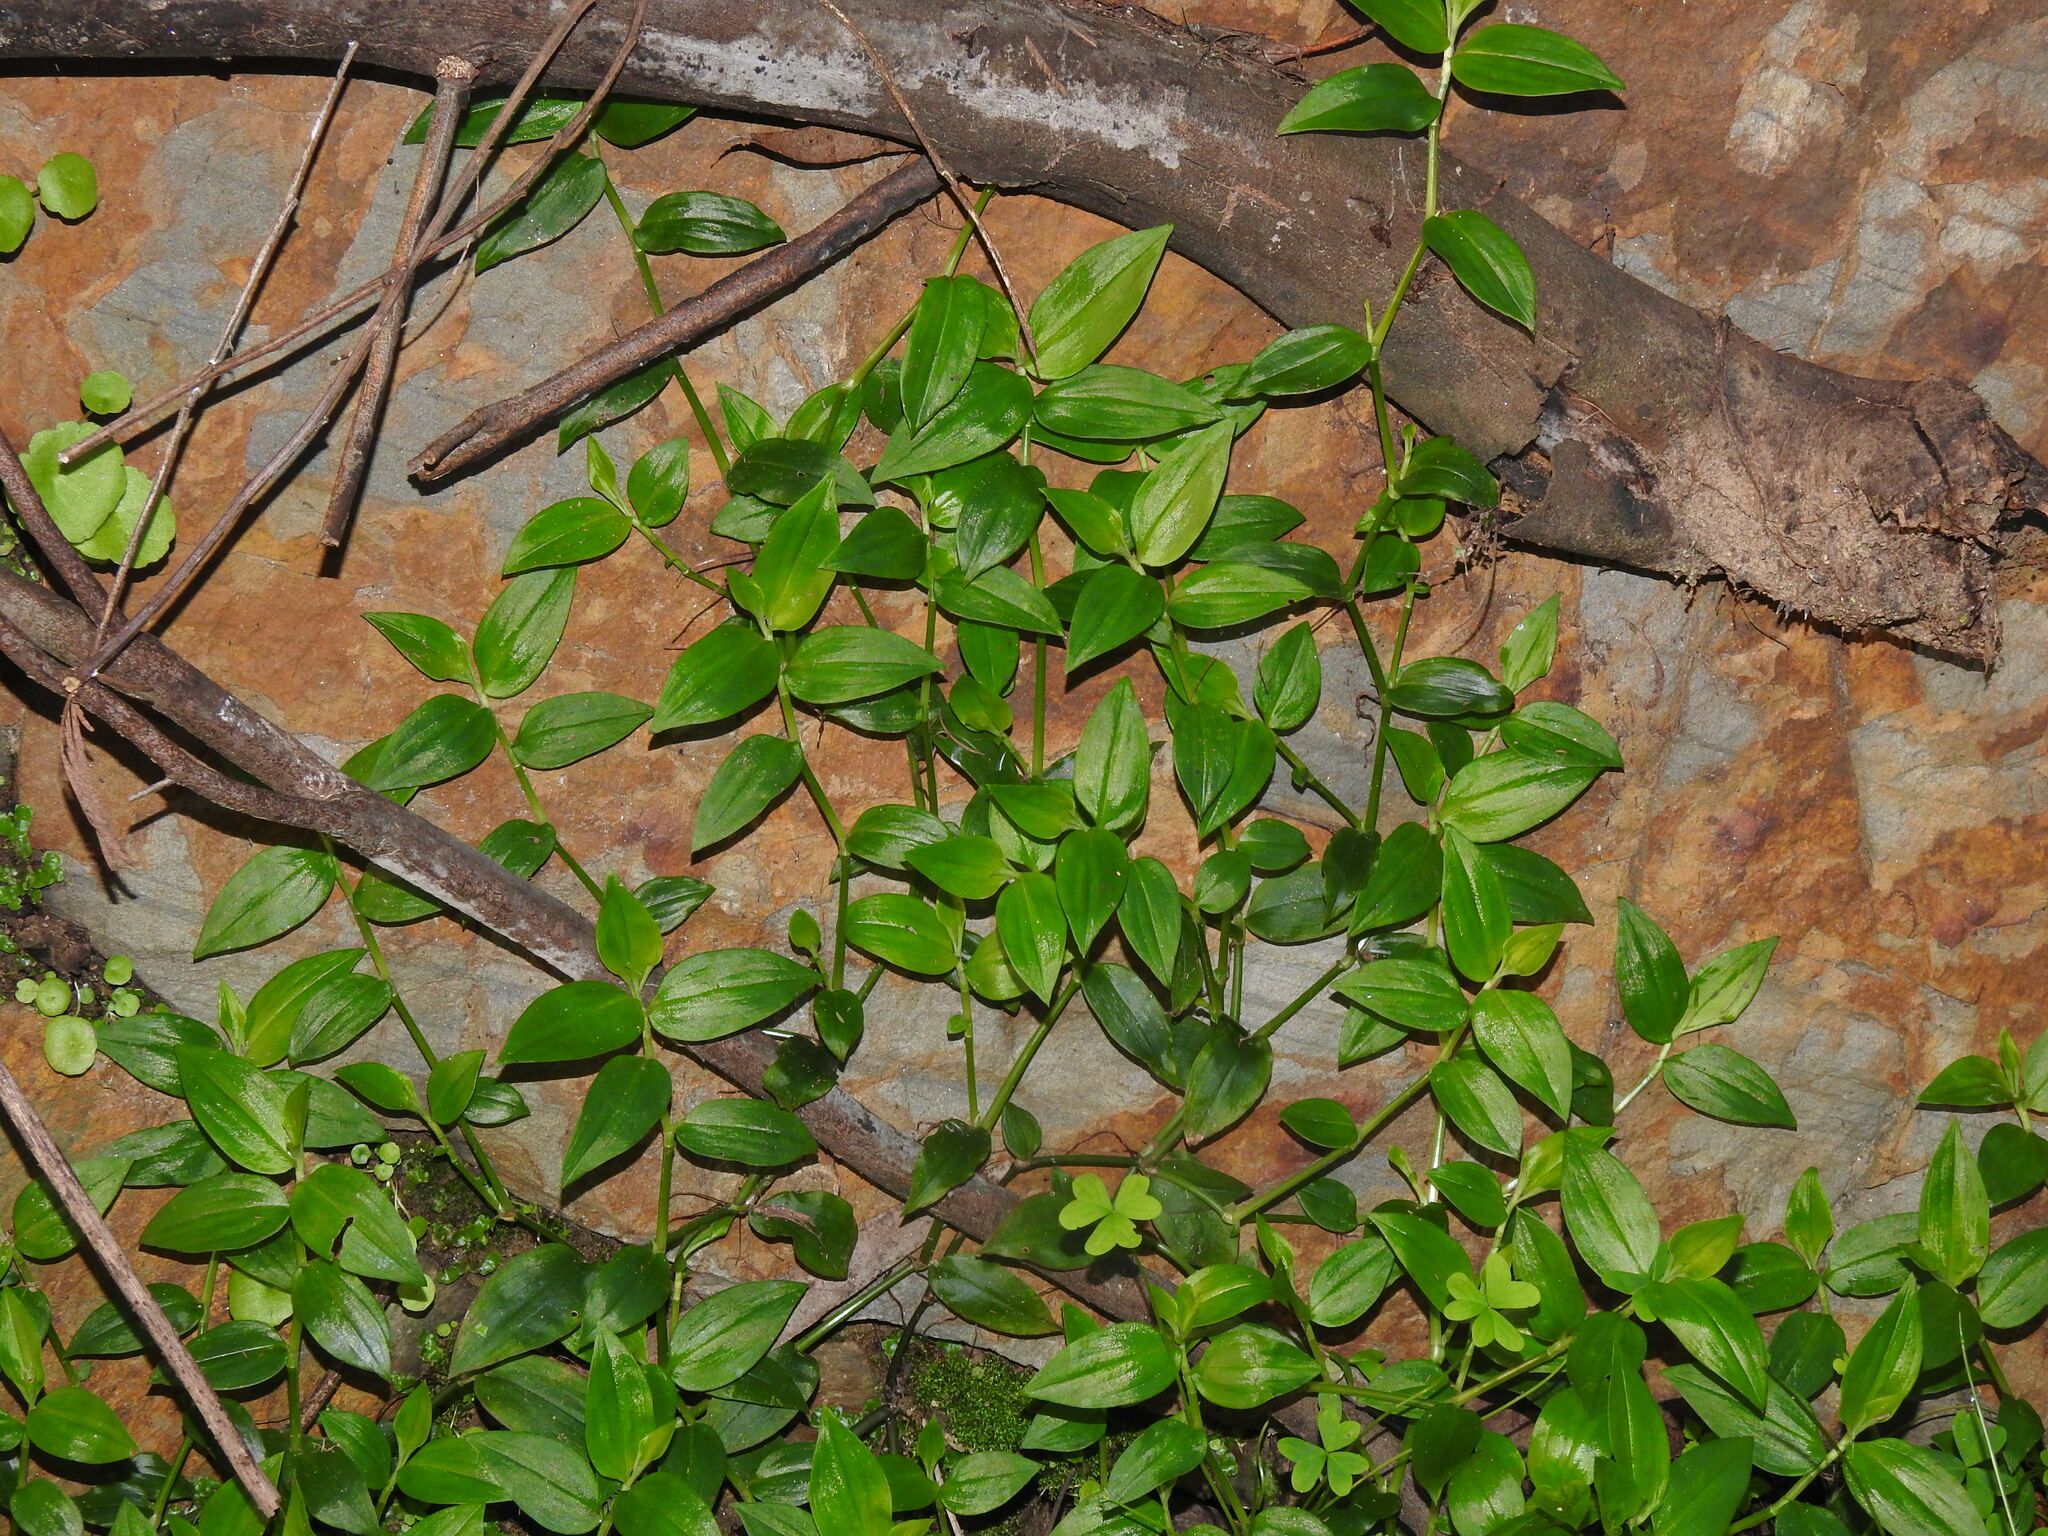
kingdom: Plantae
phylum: Tracheophyta
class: Liliopsida
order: Commelinales
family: Commelinaceae
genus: Tradescantia
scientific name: Tradescantia fluminensis
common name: Wandering-jew
